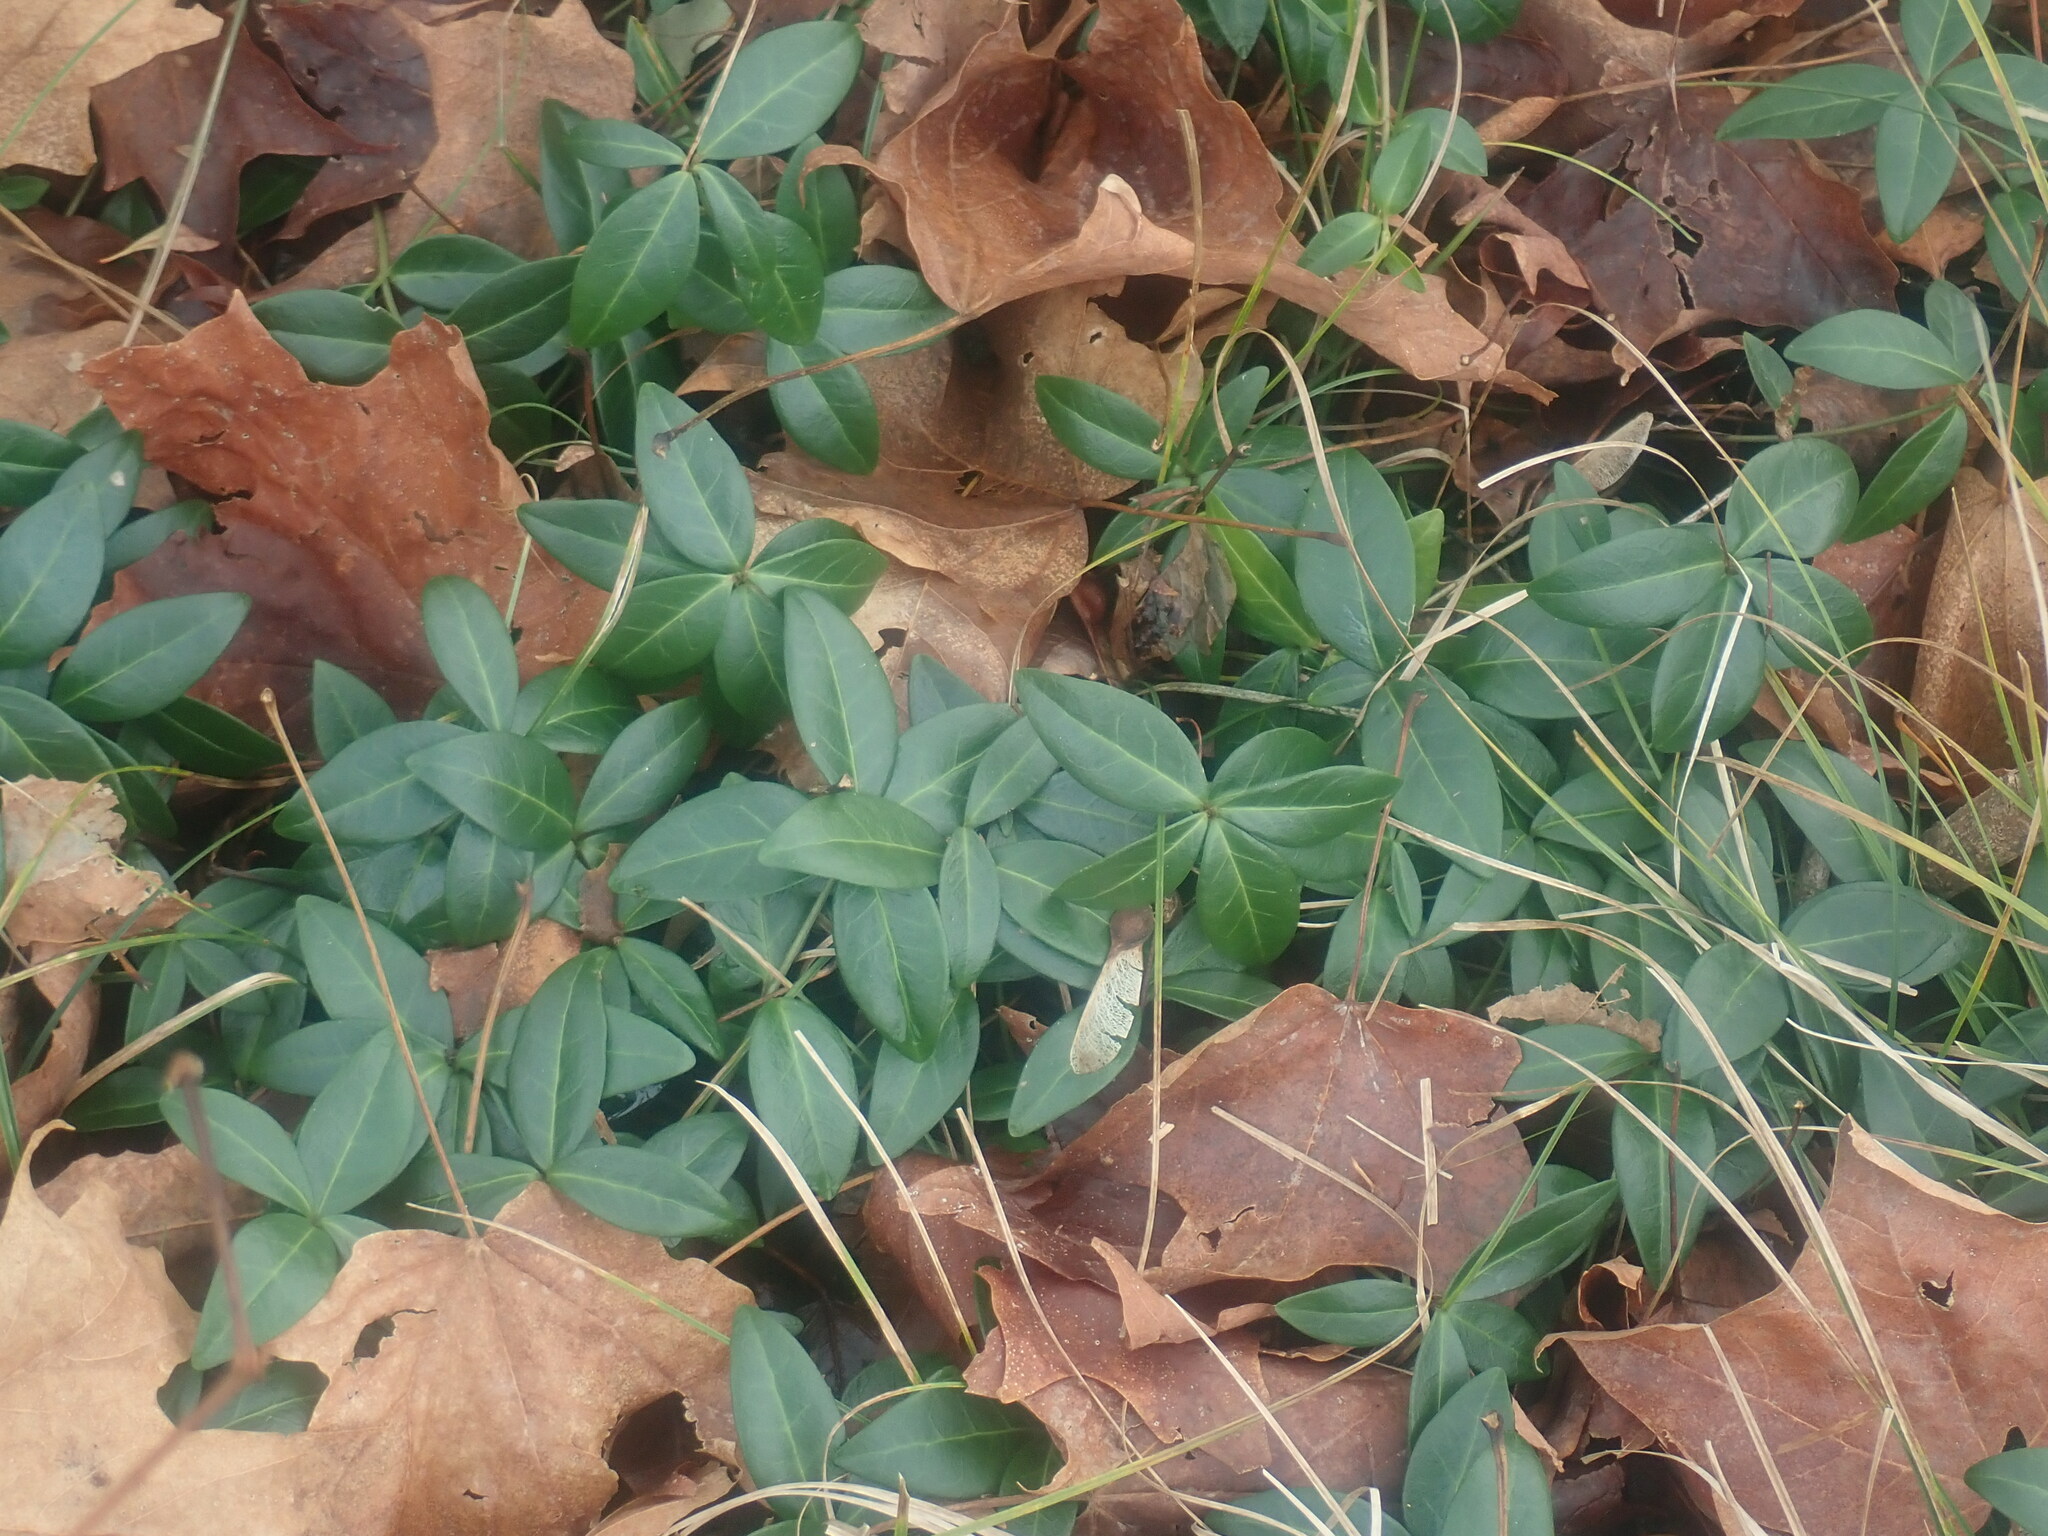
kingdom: Plantae
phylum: Tracheophyta
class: Magnoliopsida
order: Gentianales
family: Apocynaceae
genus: Vinca
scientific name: Vinca minor
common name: Lesser periwinkle
